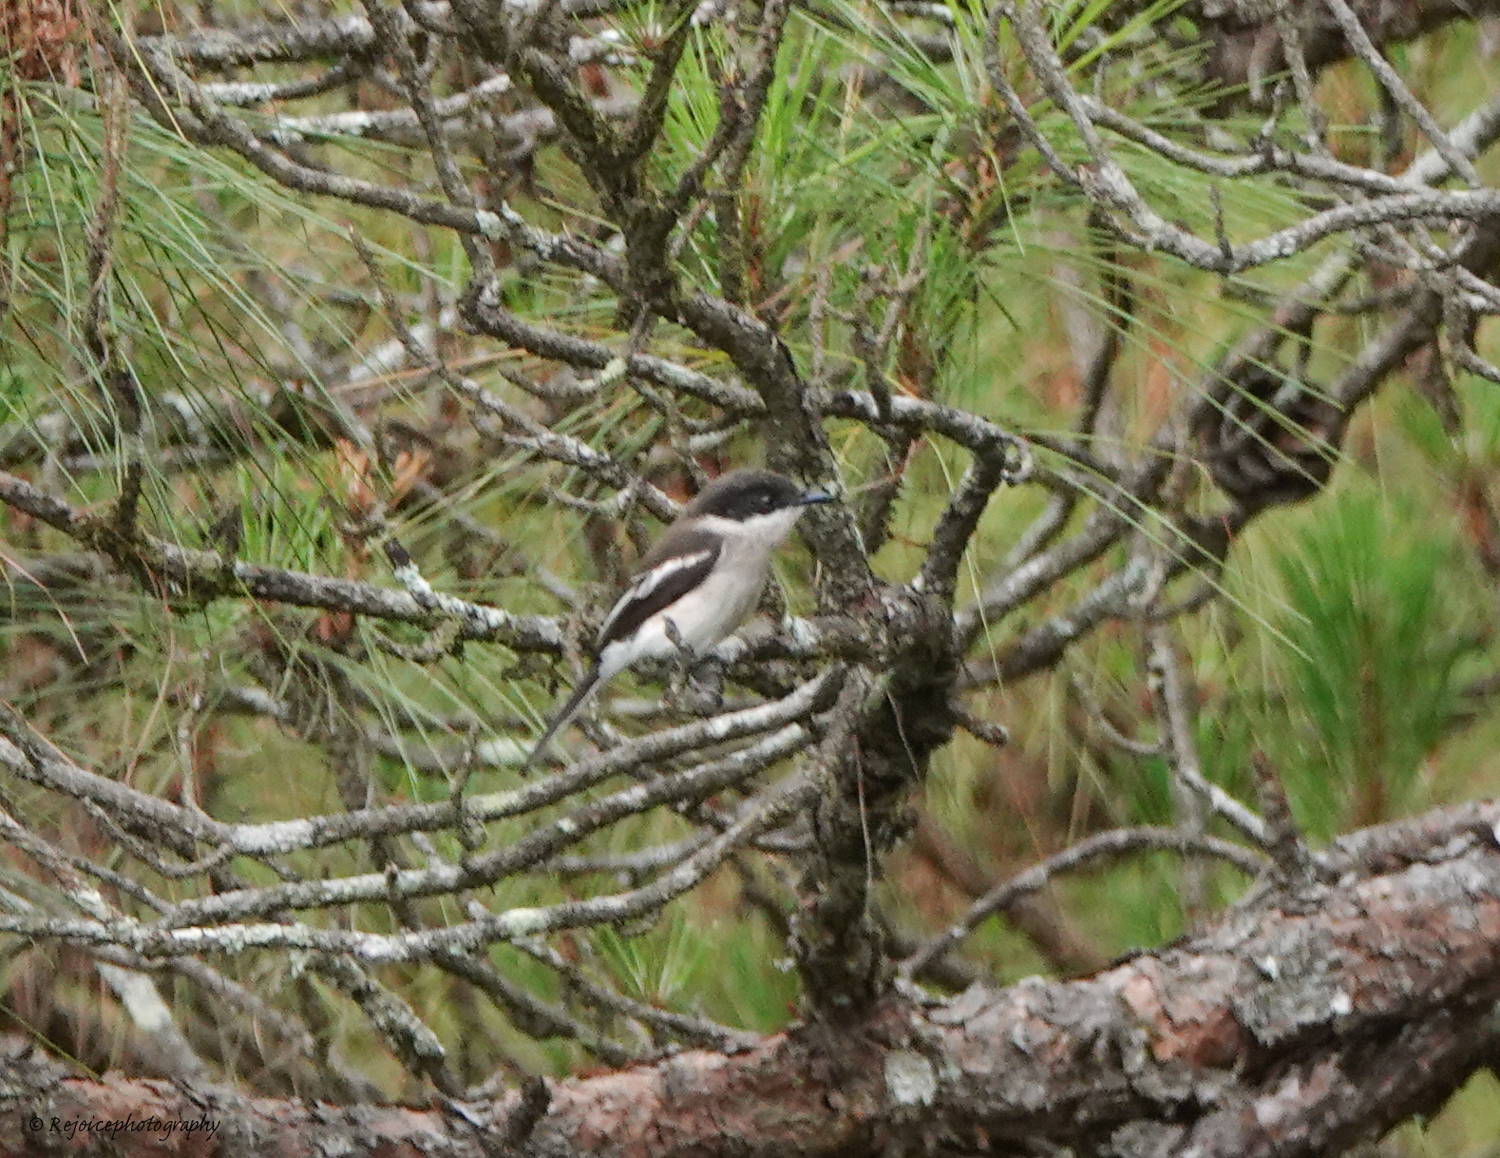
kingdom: Animalia
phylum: Chordata
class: Aves
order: Passeriformes
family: Tephrodornithidae
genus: Hemipus
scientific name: Hemipus picatus
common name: Bar-winged flycatcher-shrike
